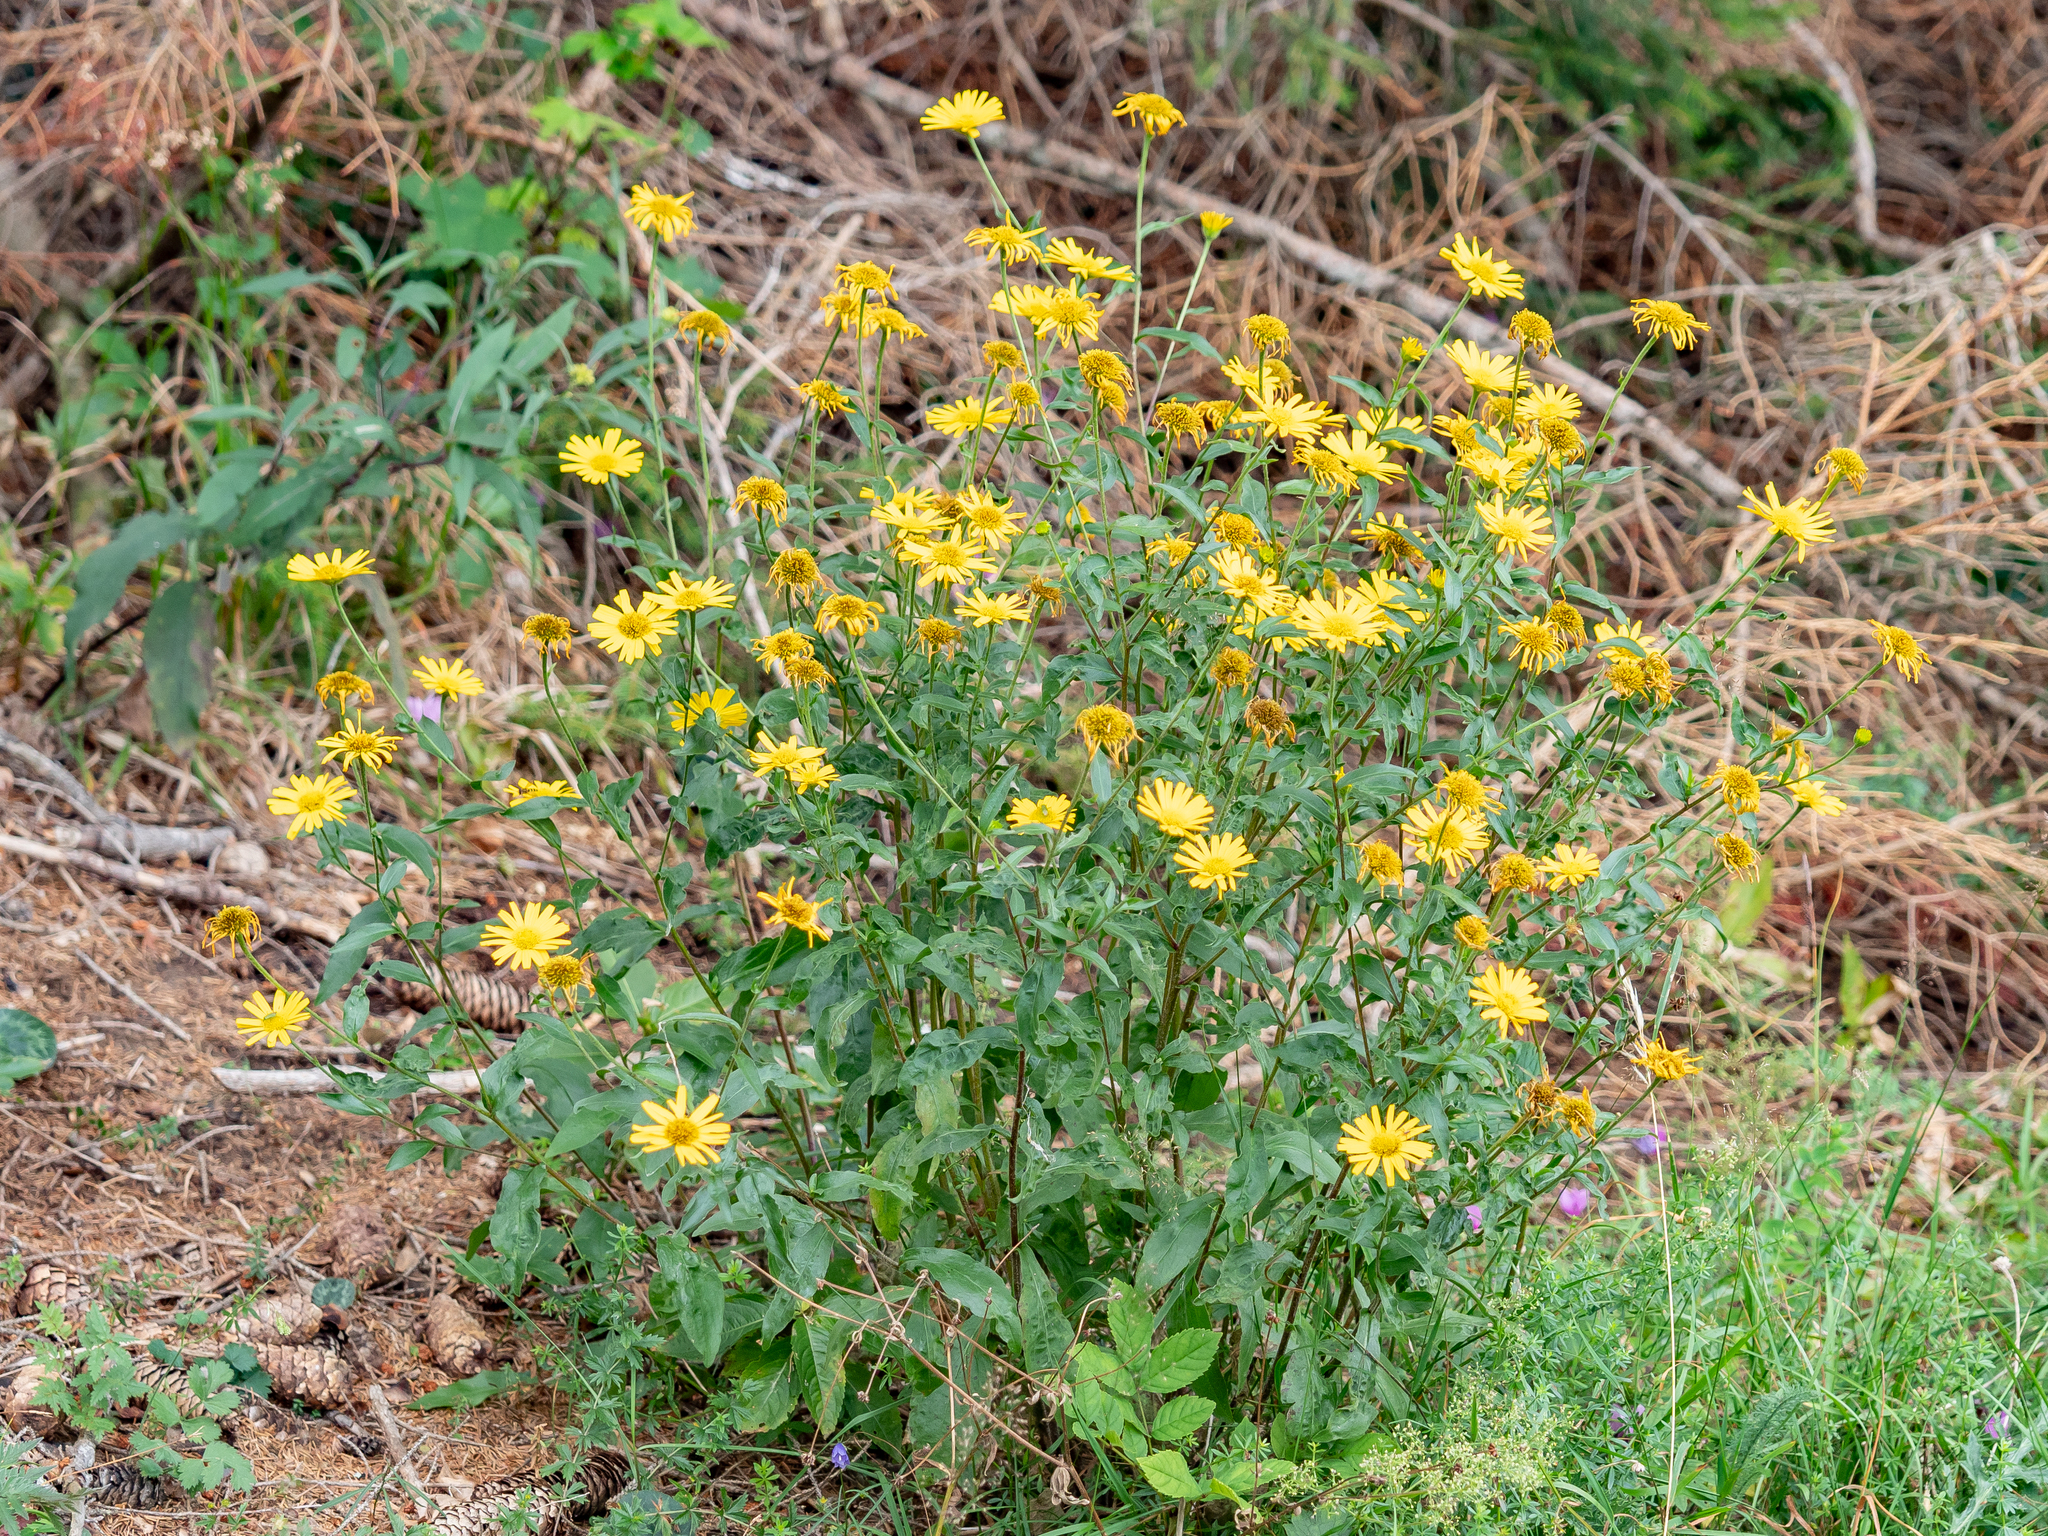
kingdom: Plantae
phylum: Tracheophyta
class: Magnoliopsida
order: Asterales
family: Asteraceae
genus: Buphthalmum
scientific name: Buphthalmum salicifolium
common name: Willow-leaved yellow-oxeye
